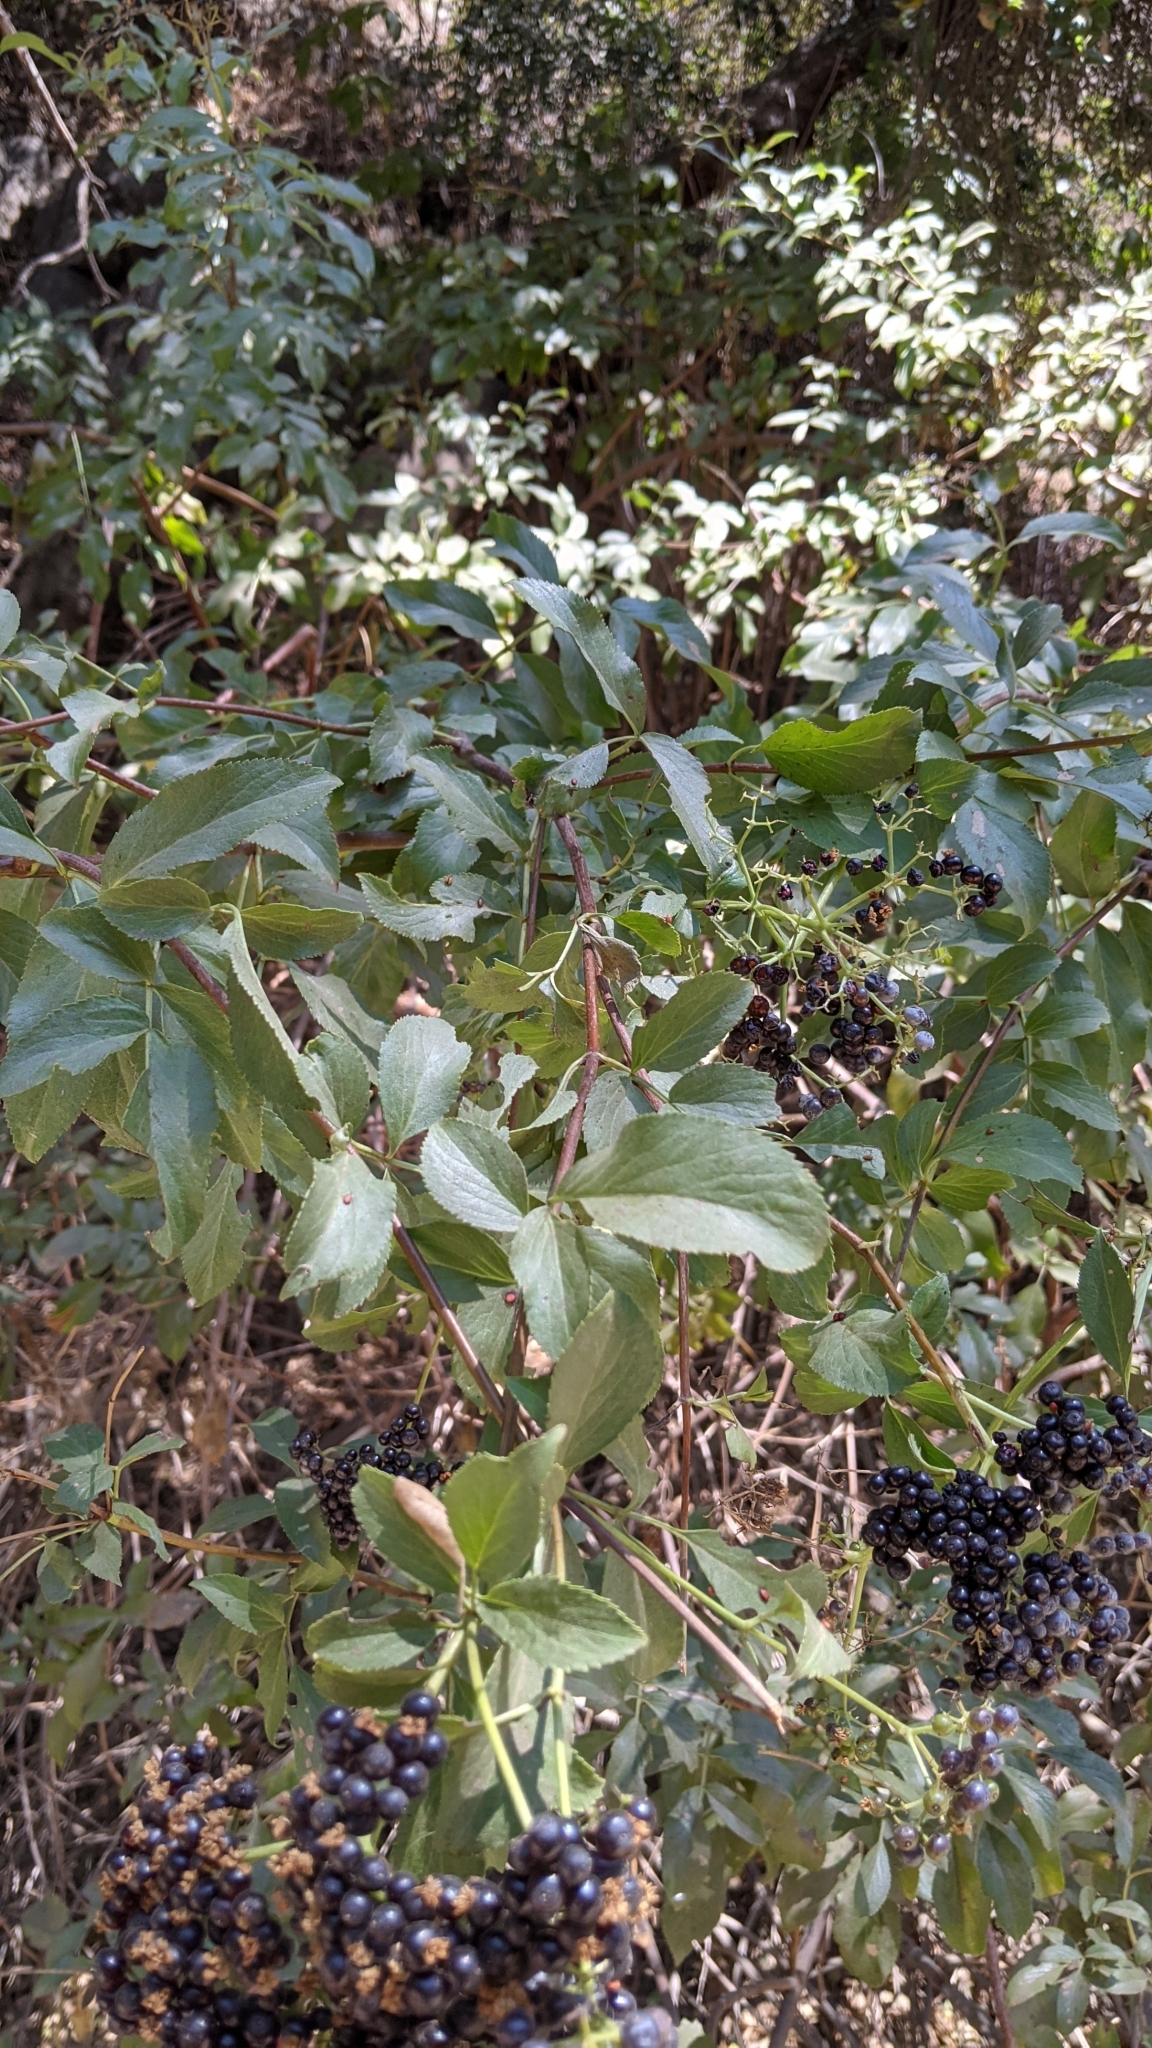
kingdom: Plantae
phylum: Tracheophyta
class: Magnoliopsida
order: Dipsacales
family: Viburnaceae
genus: Sambucus
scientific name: Sambucus cerulea
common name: Blue elder
